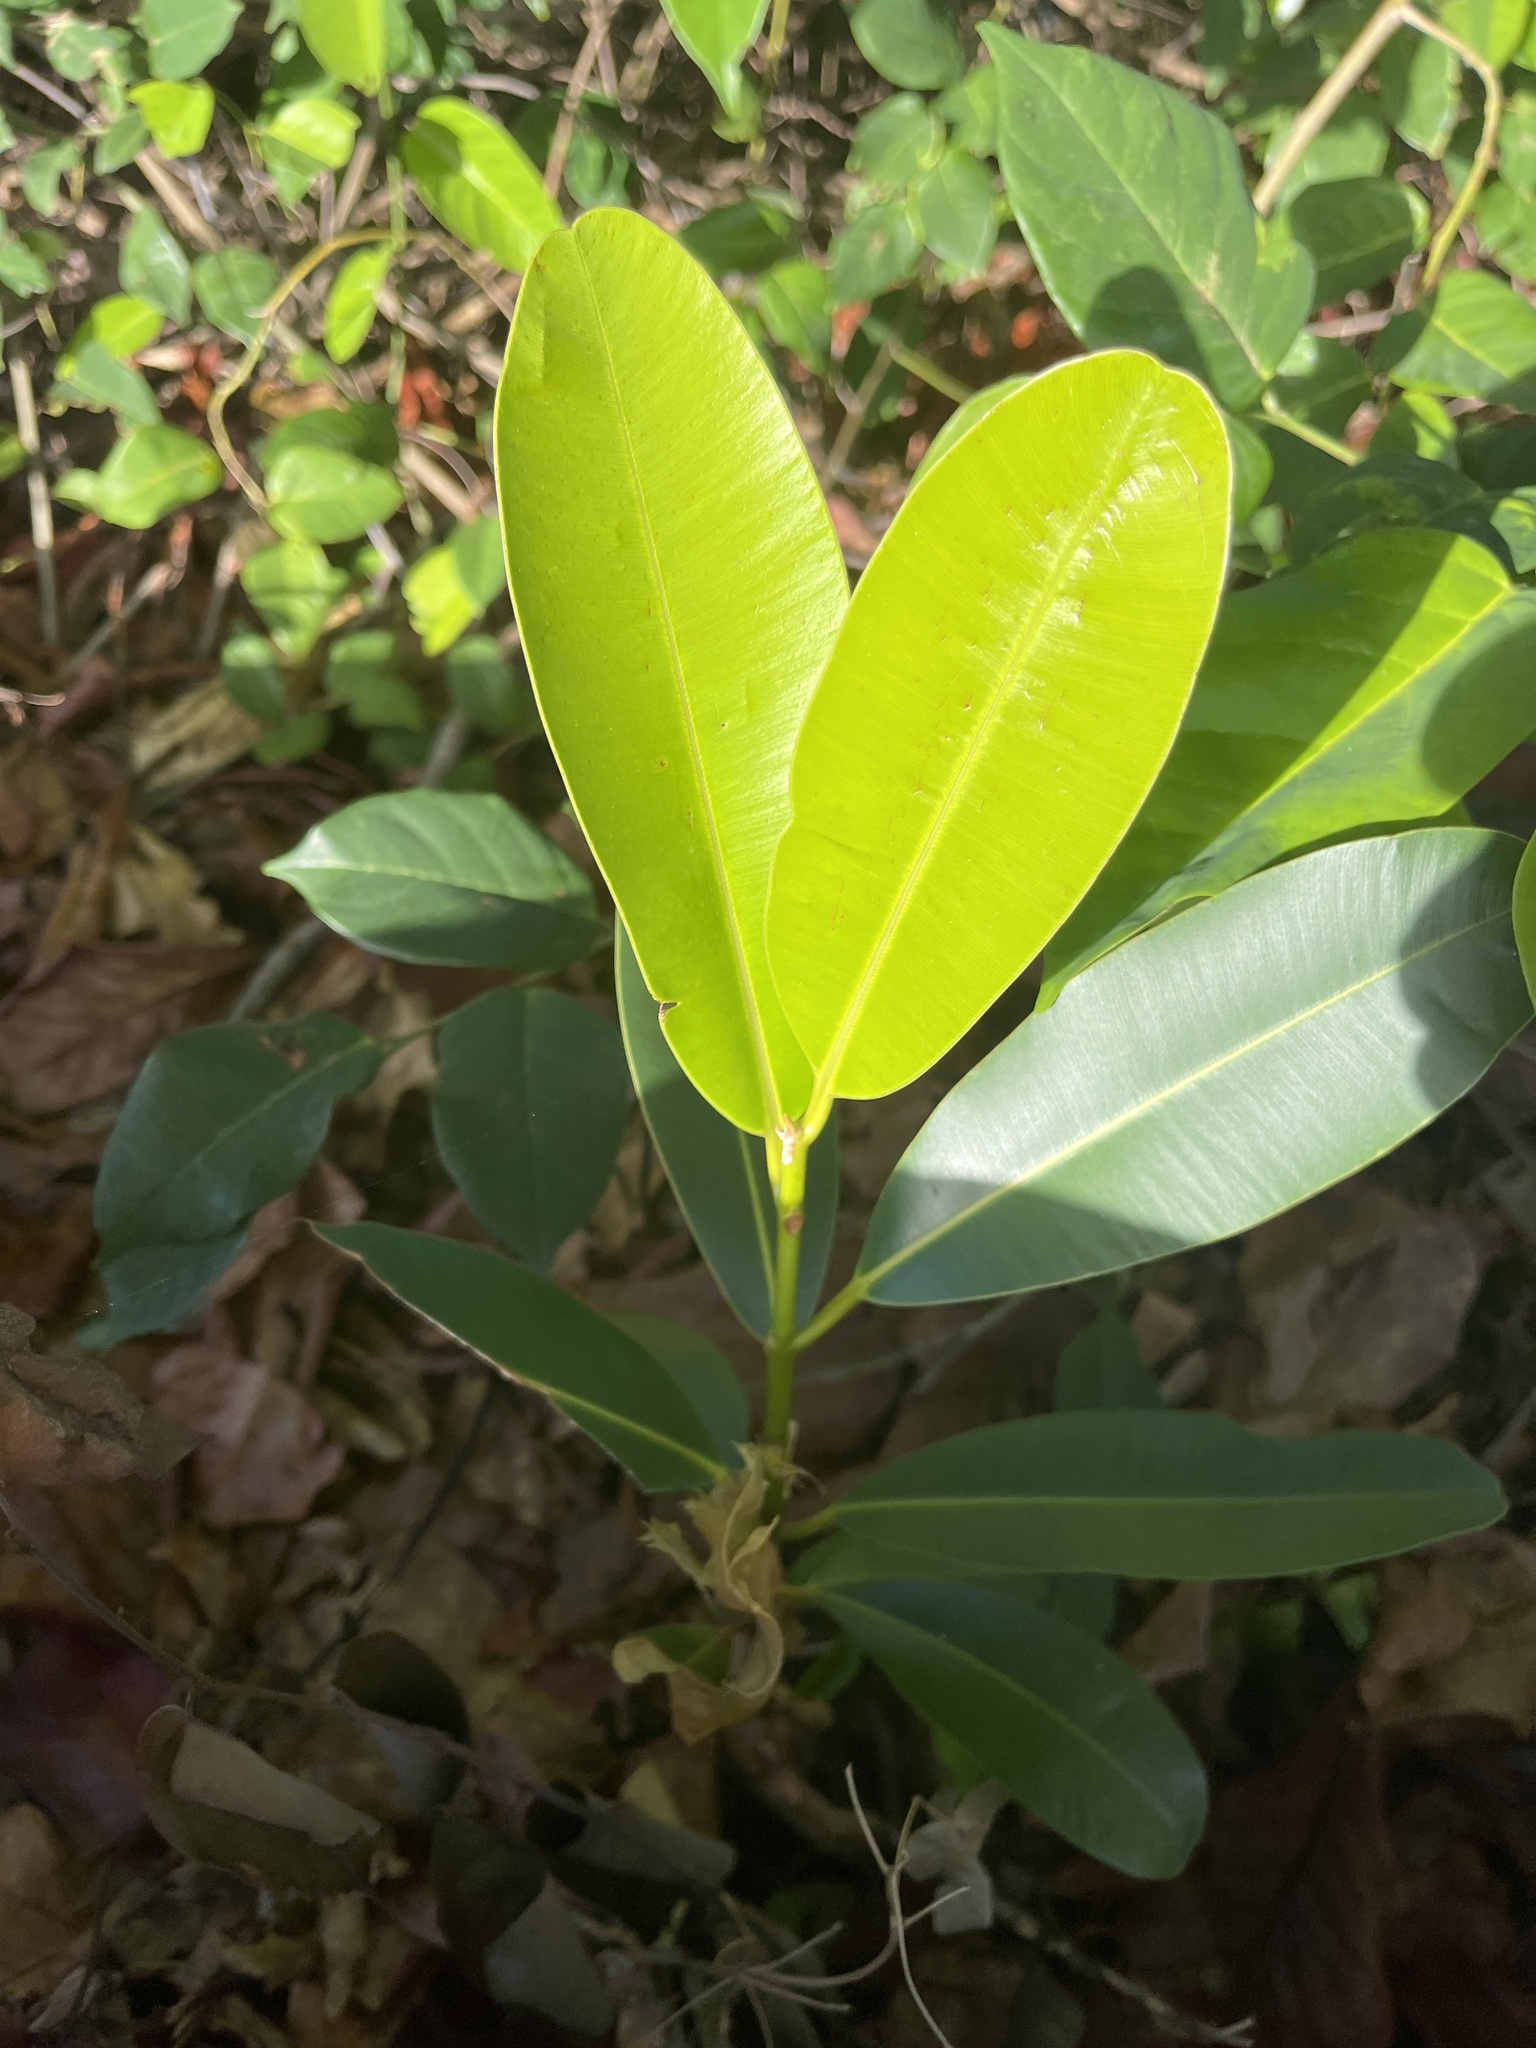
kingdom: Plantae
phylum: Tracheophyta
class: Magnoliopsida
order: Malpighiales
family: Calophyllaceae
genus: Calophyllum
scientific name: Calophyllum antillanum
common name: Santa maria-tree
